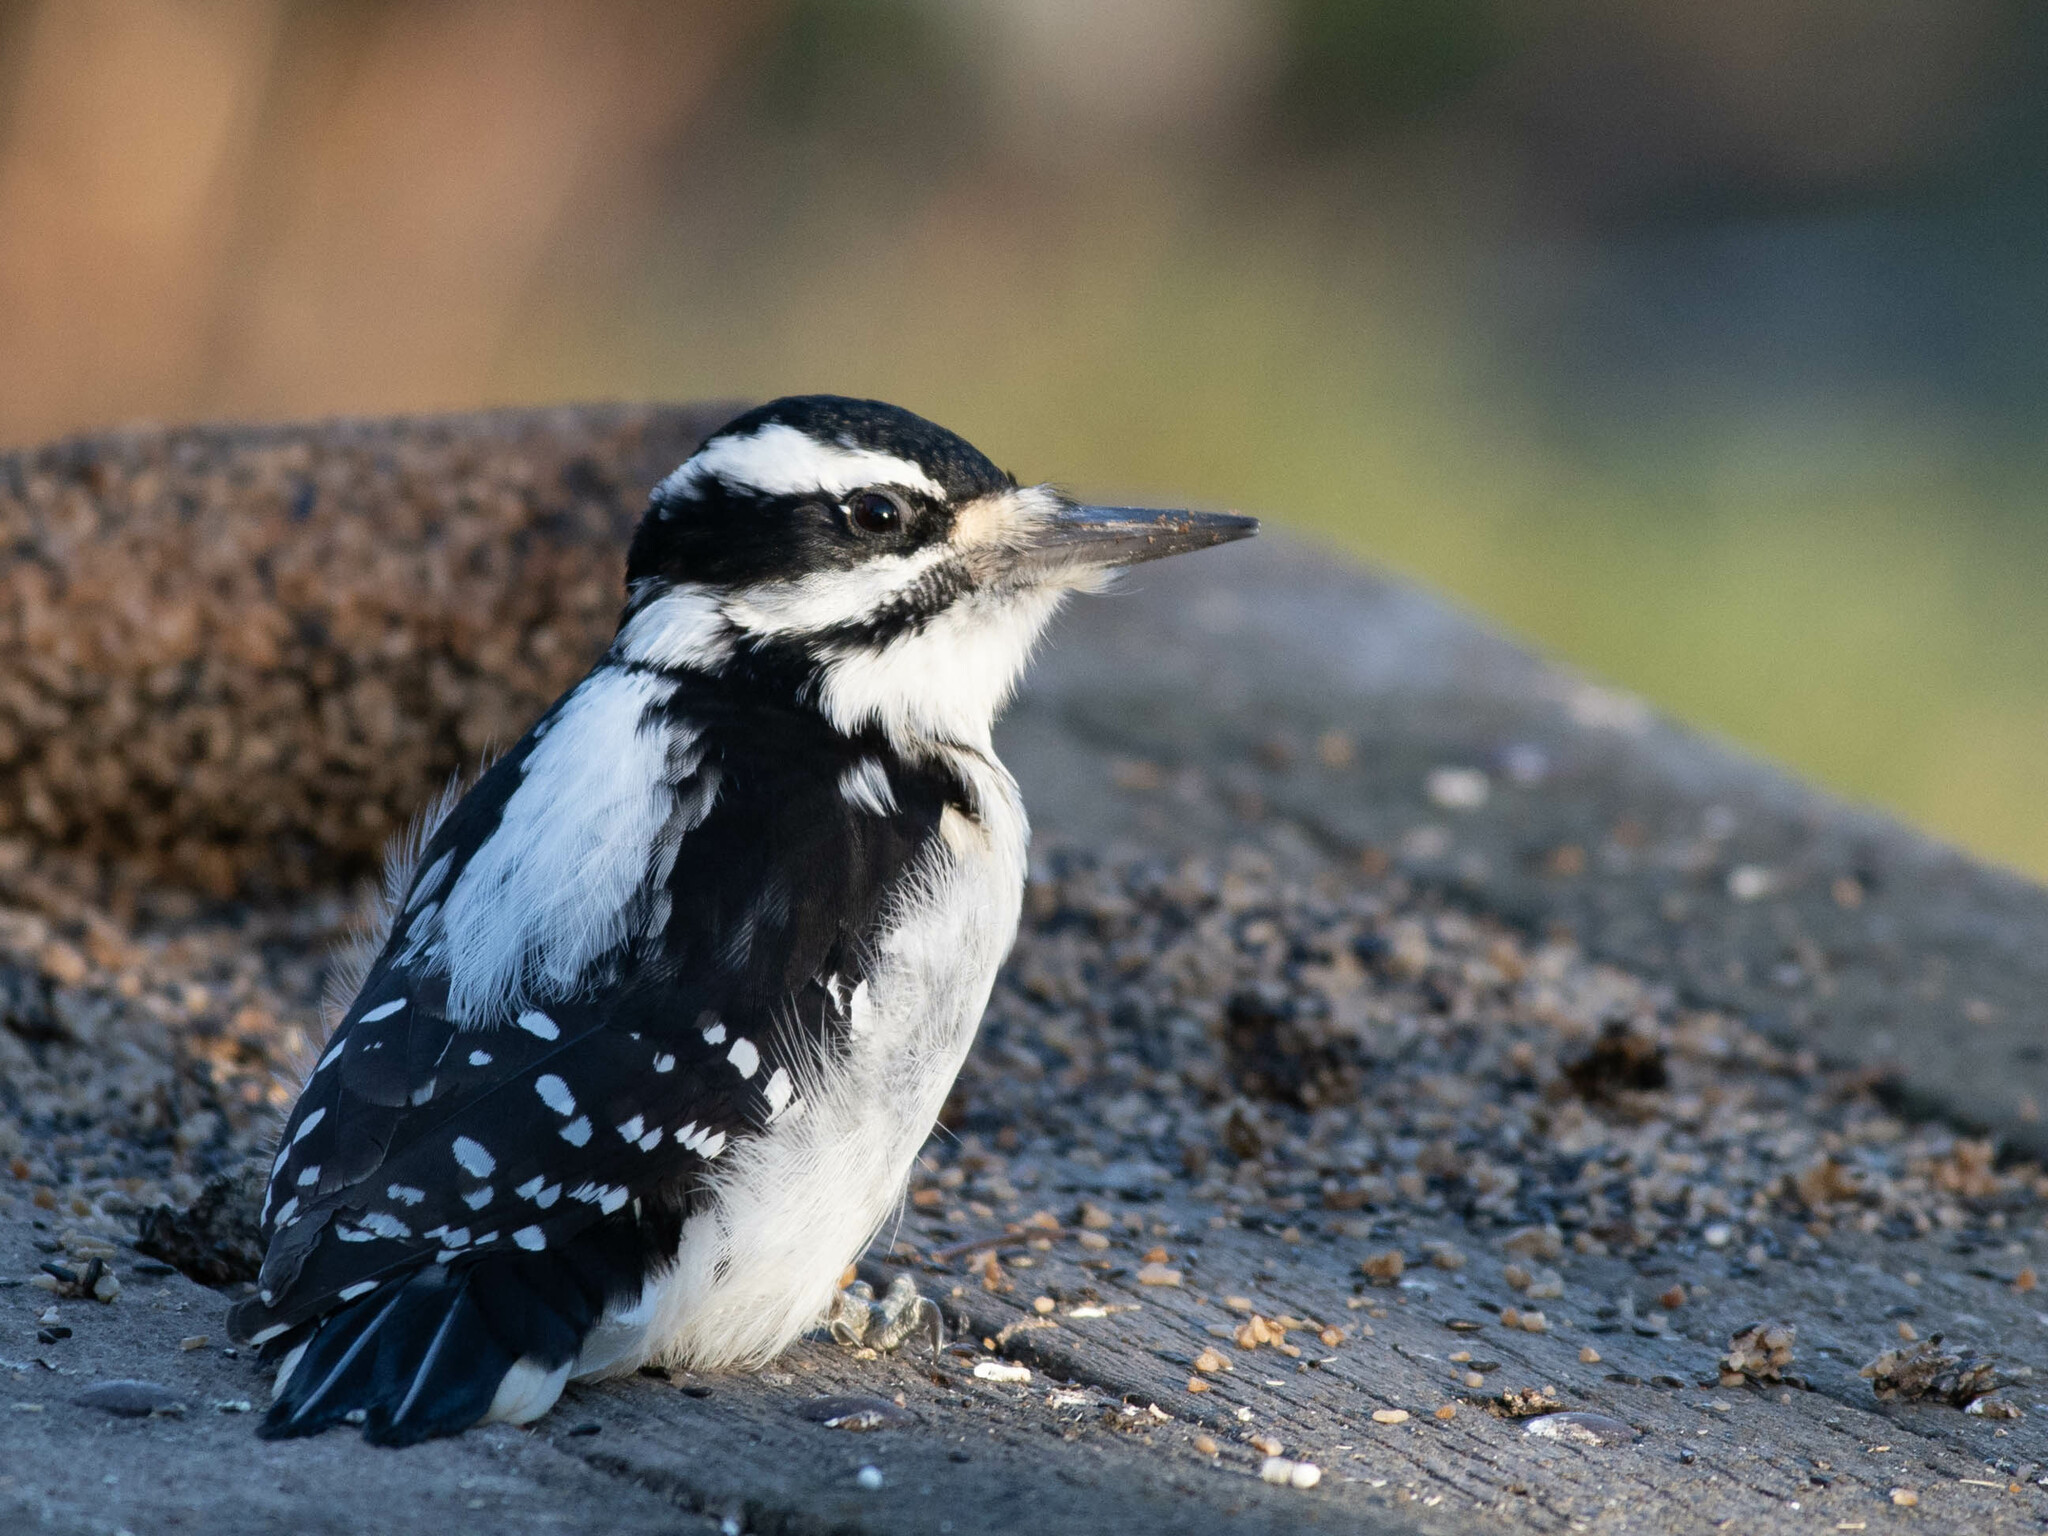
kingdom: Animalia
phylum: Chordata
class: Aves
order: Piciformes
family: Picidae
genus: Leuconotopicus
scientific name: Leuconotopicus villosus
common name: Hairy woodpecker
